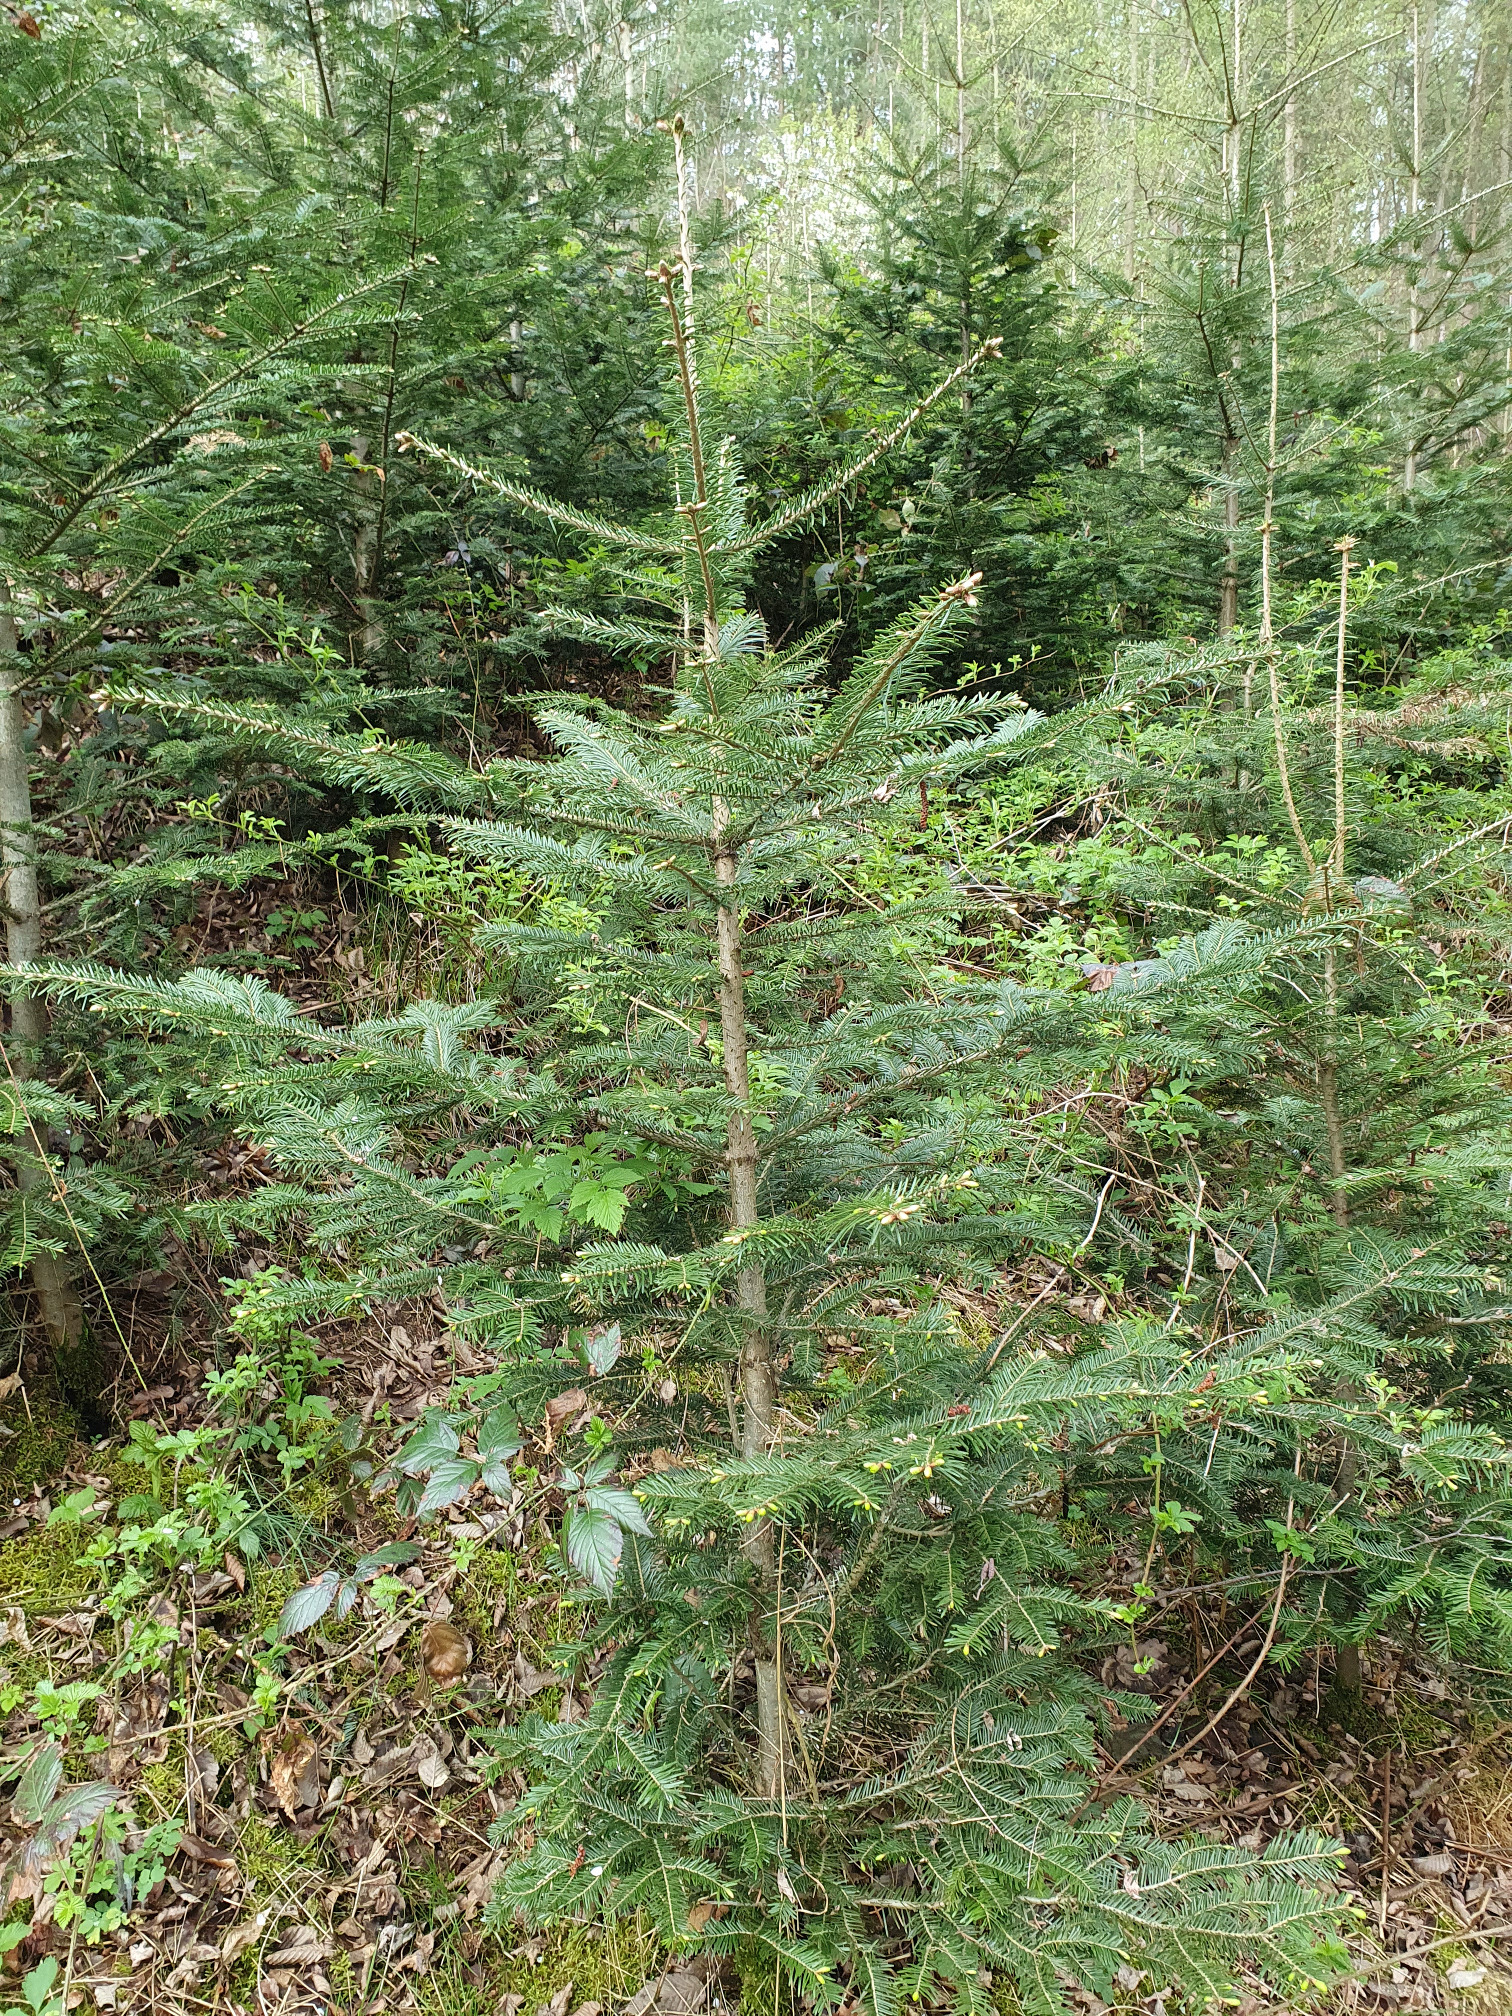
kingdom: Plantae
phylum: Tracheophyta
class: Pinopsida
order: Pinales
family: Pinaceae
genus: Abies
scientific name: Abies alba
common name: Silver fir
